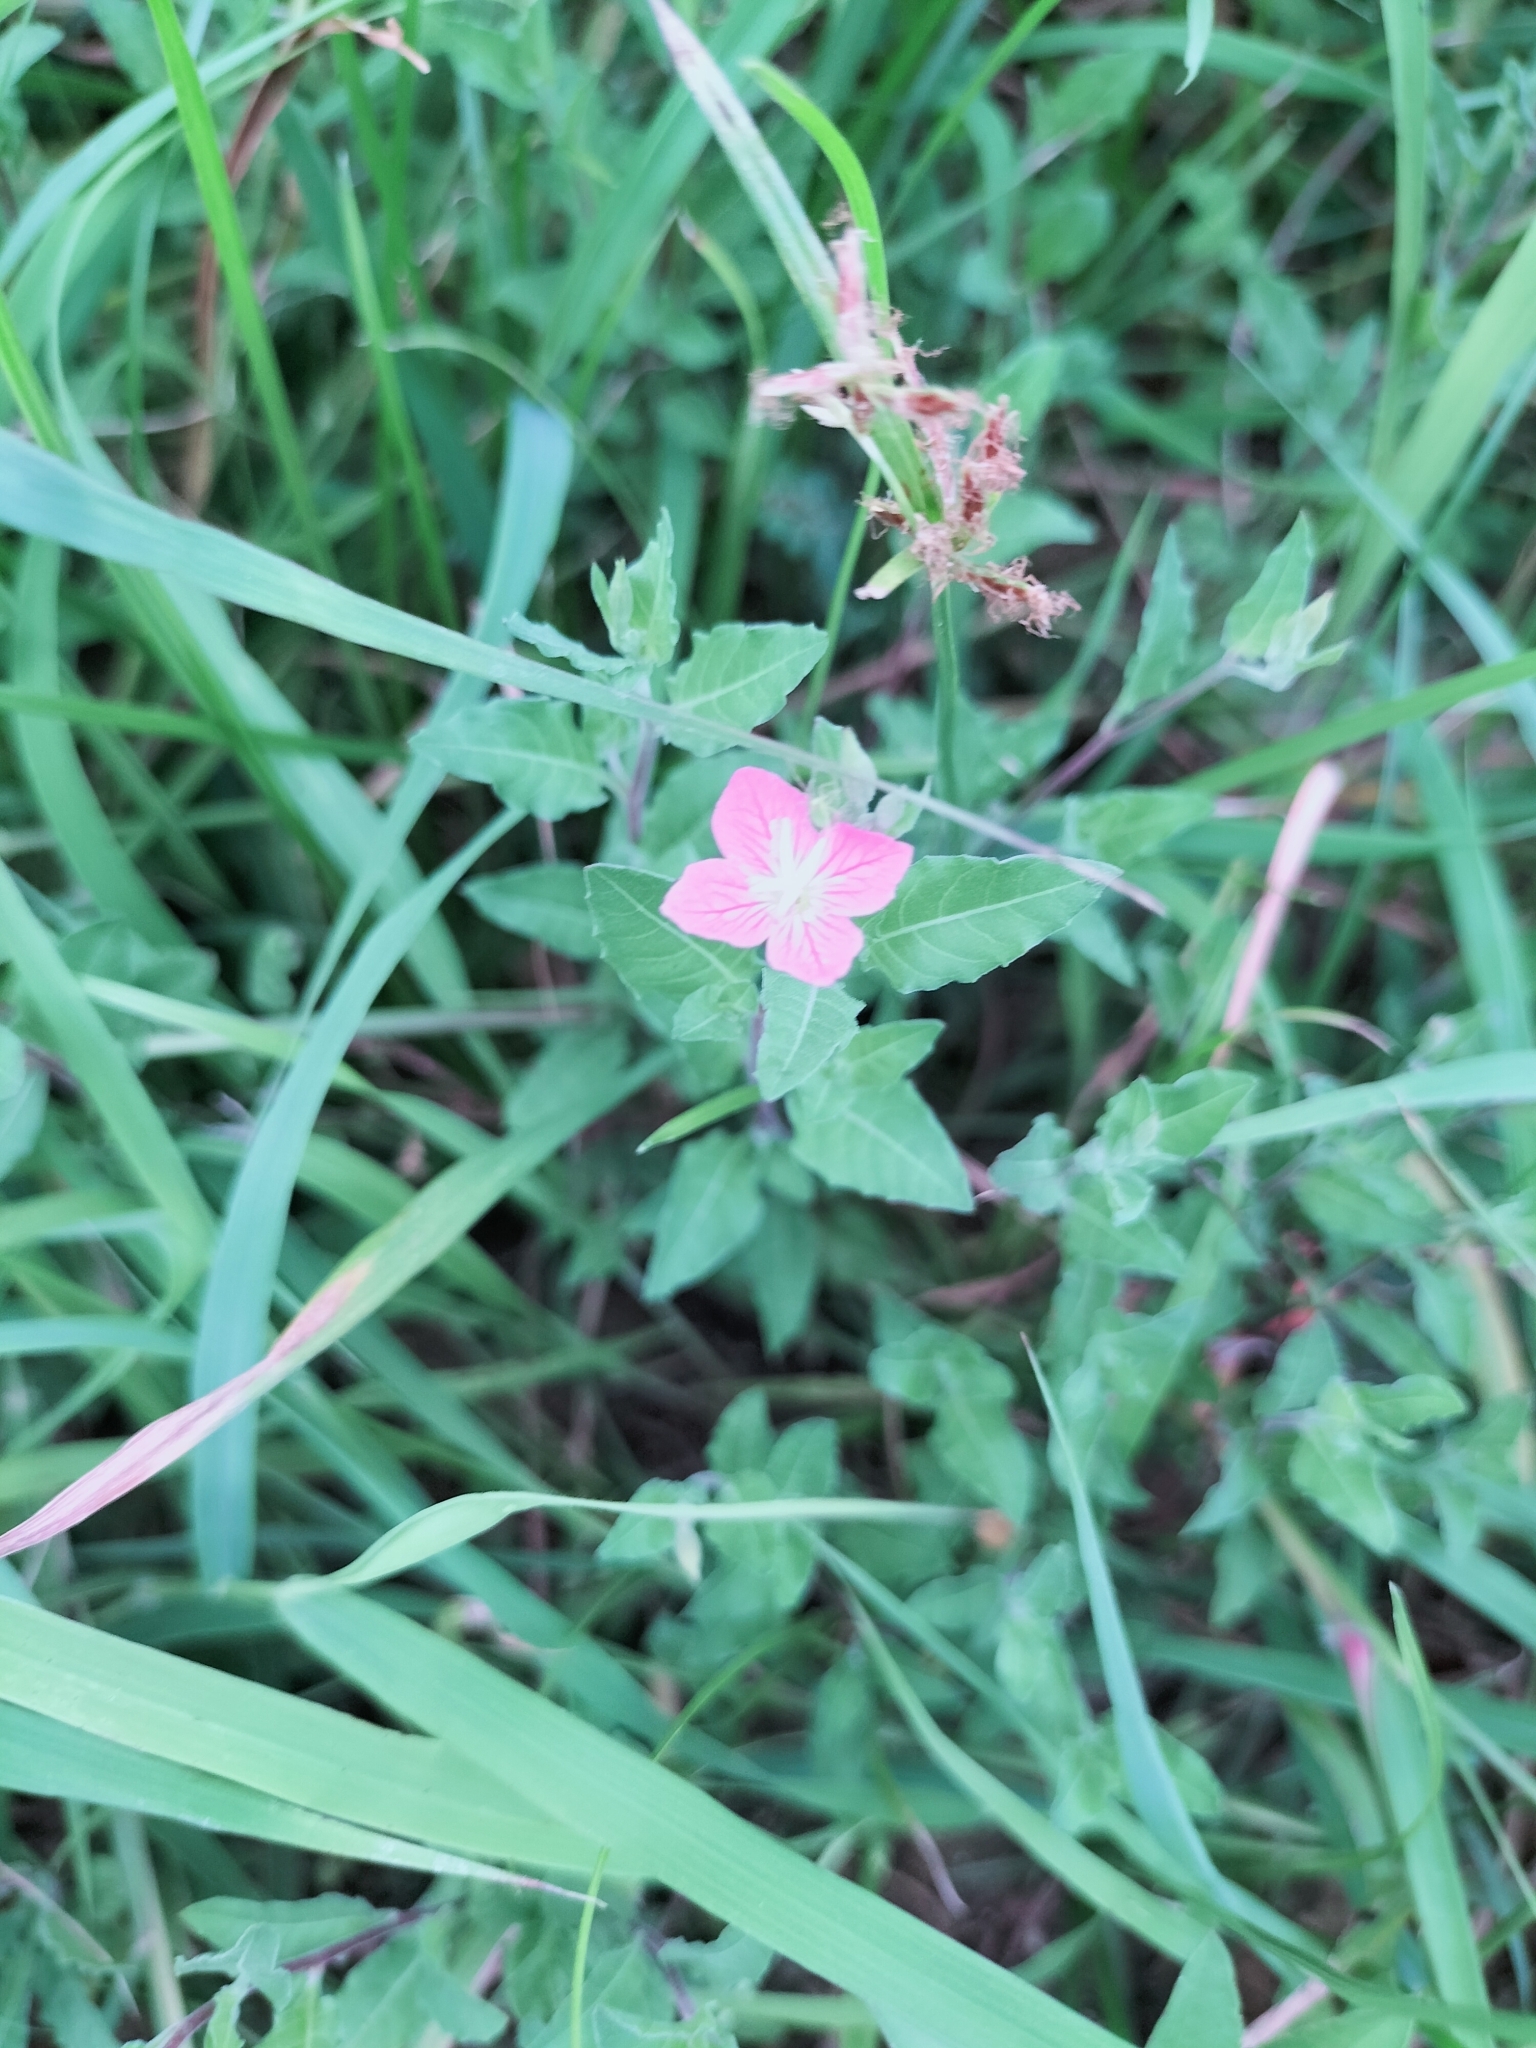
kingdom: Plantae
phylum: Tracheophyta
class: Magnoliopsida
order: Myrtales
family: Onagraceae
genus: Oenothera
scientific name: Oenothera rosea
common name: Rosy evening-primrose
